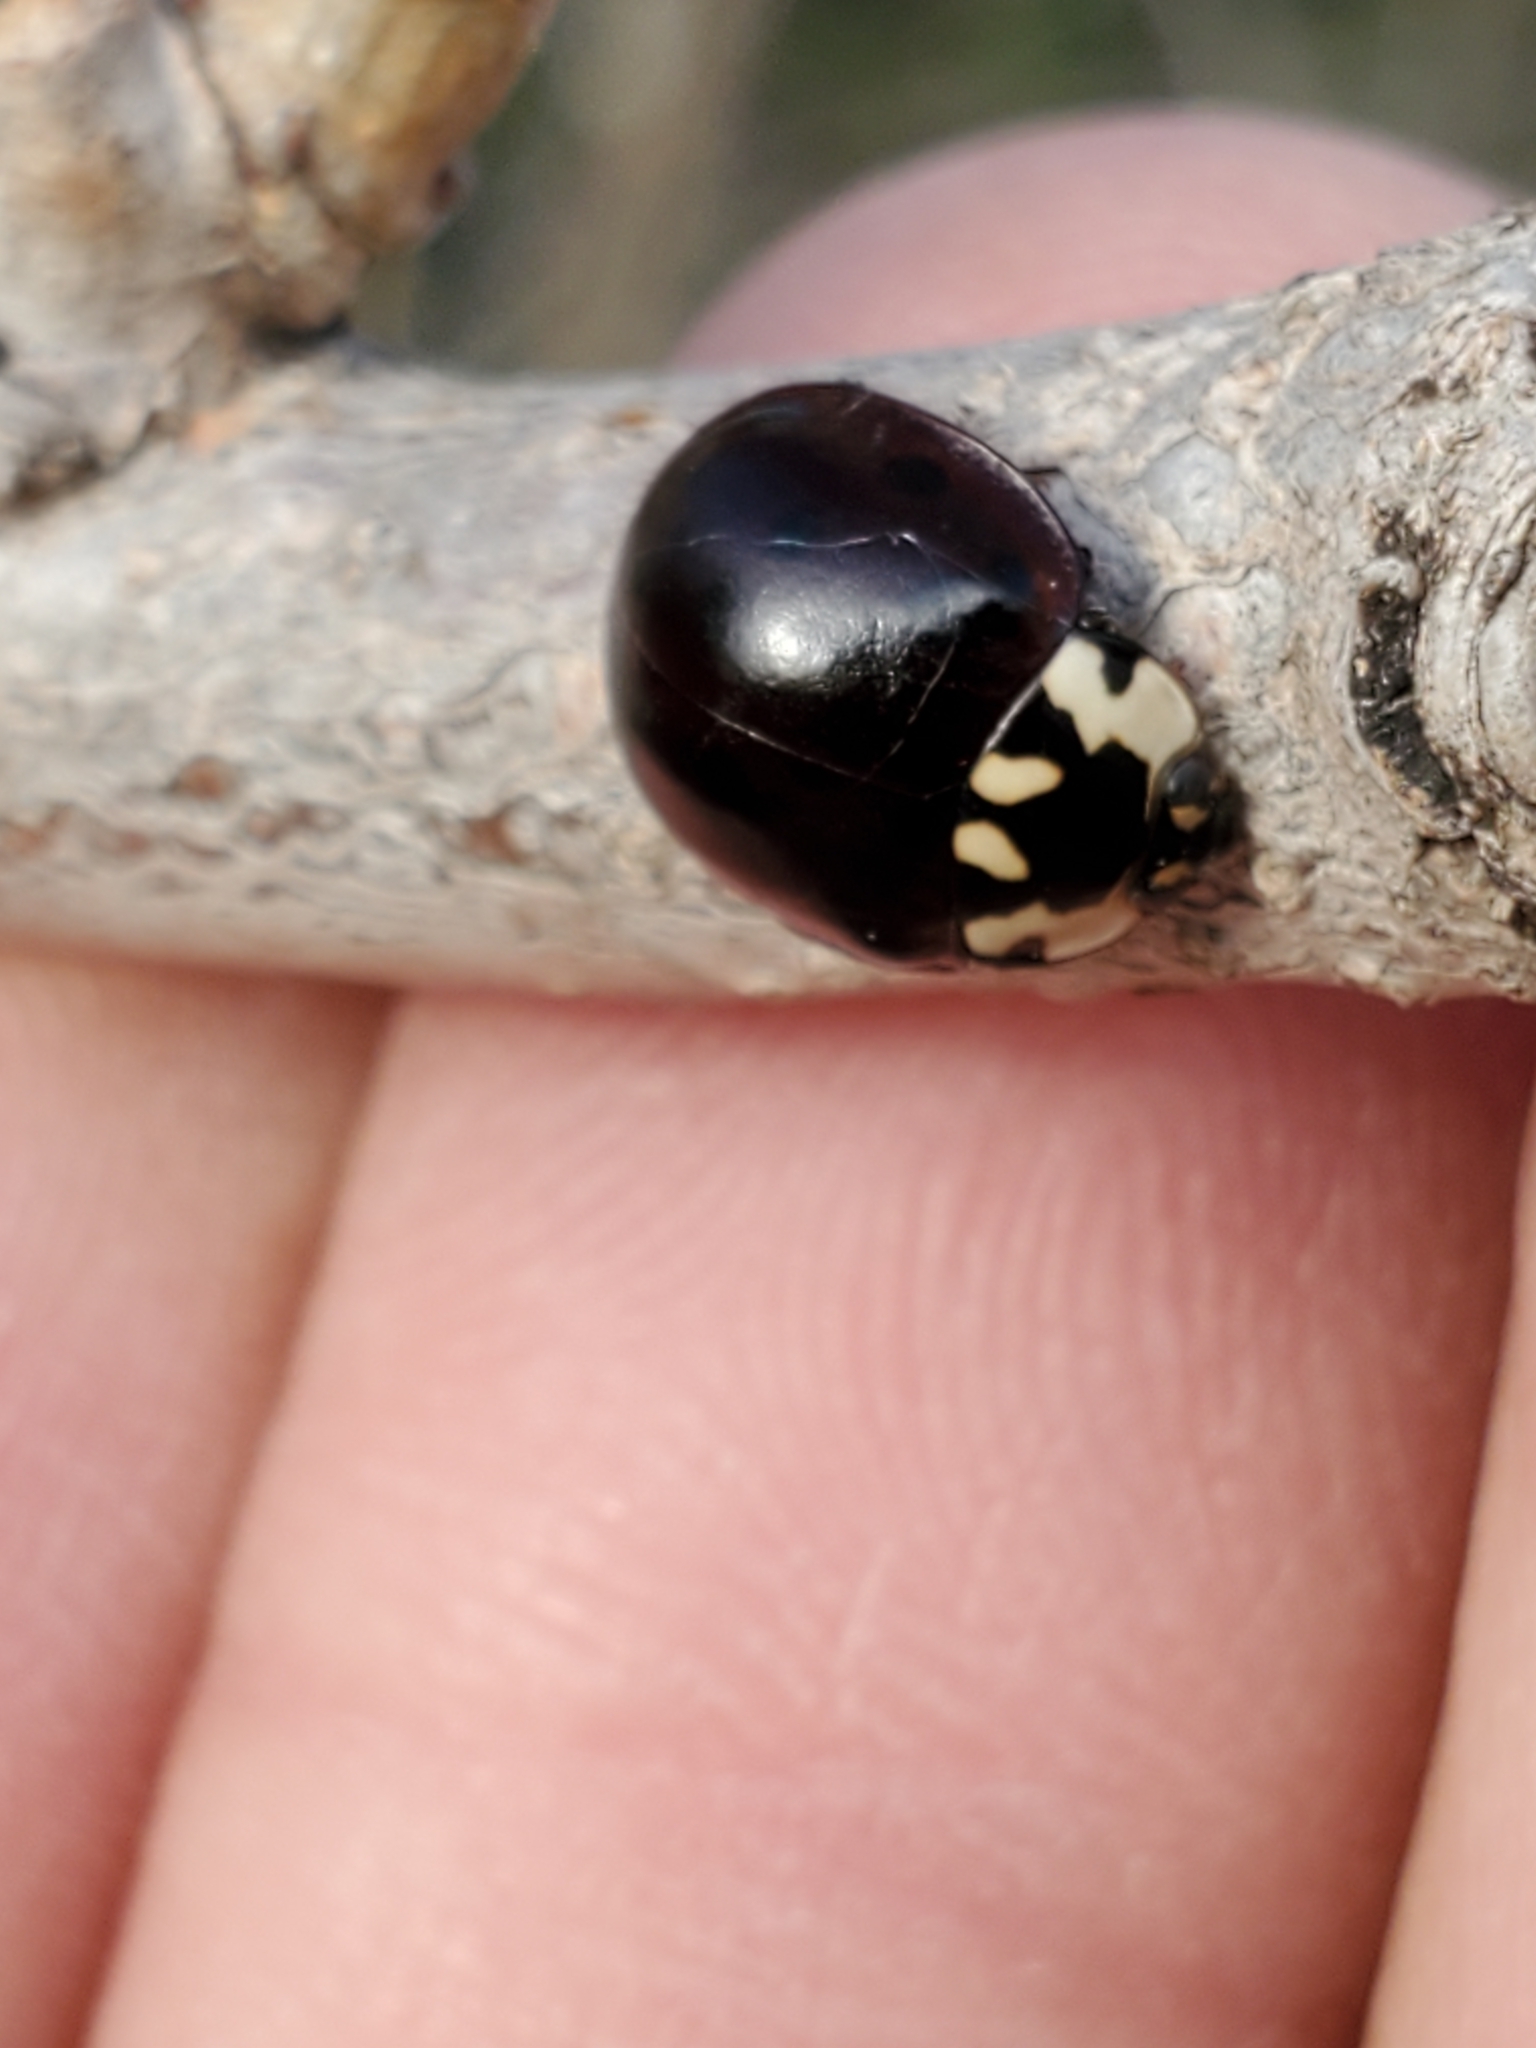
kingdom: Animalia
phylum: Arthropoda
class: Insecta
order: Coleoptera
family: Coccinellidae
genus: Anatis
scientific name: Anatis labiculata
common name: Fifteen-spotted lady beetle
